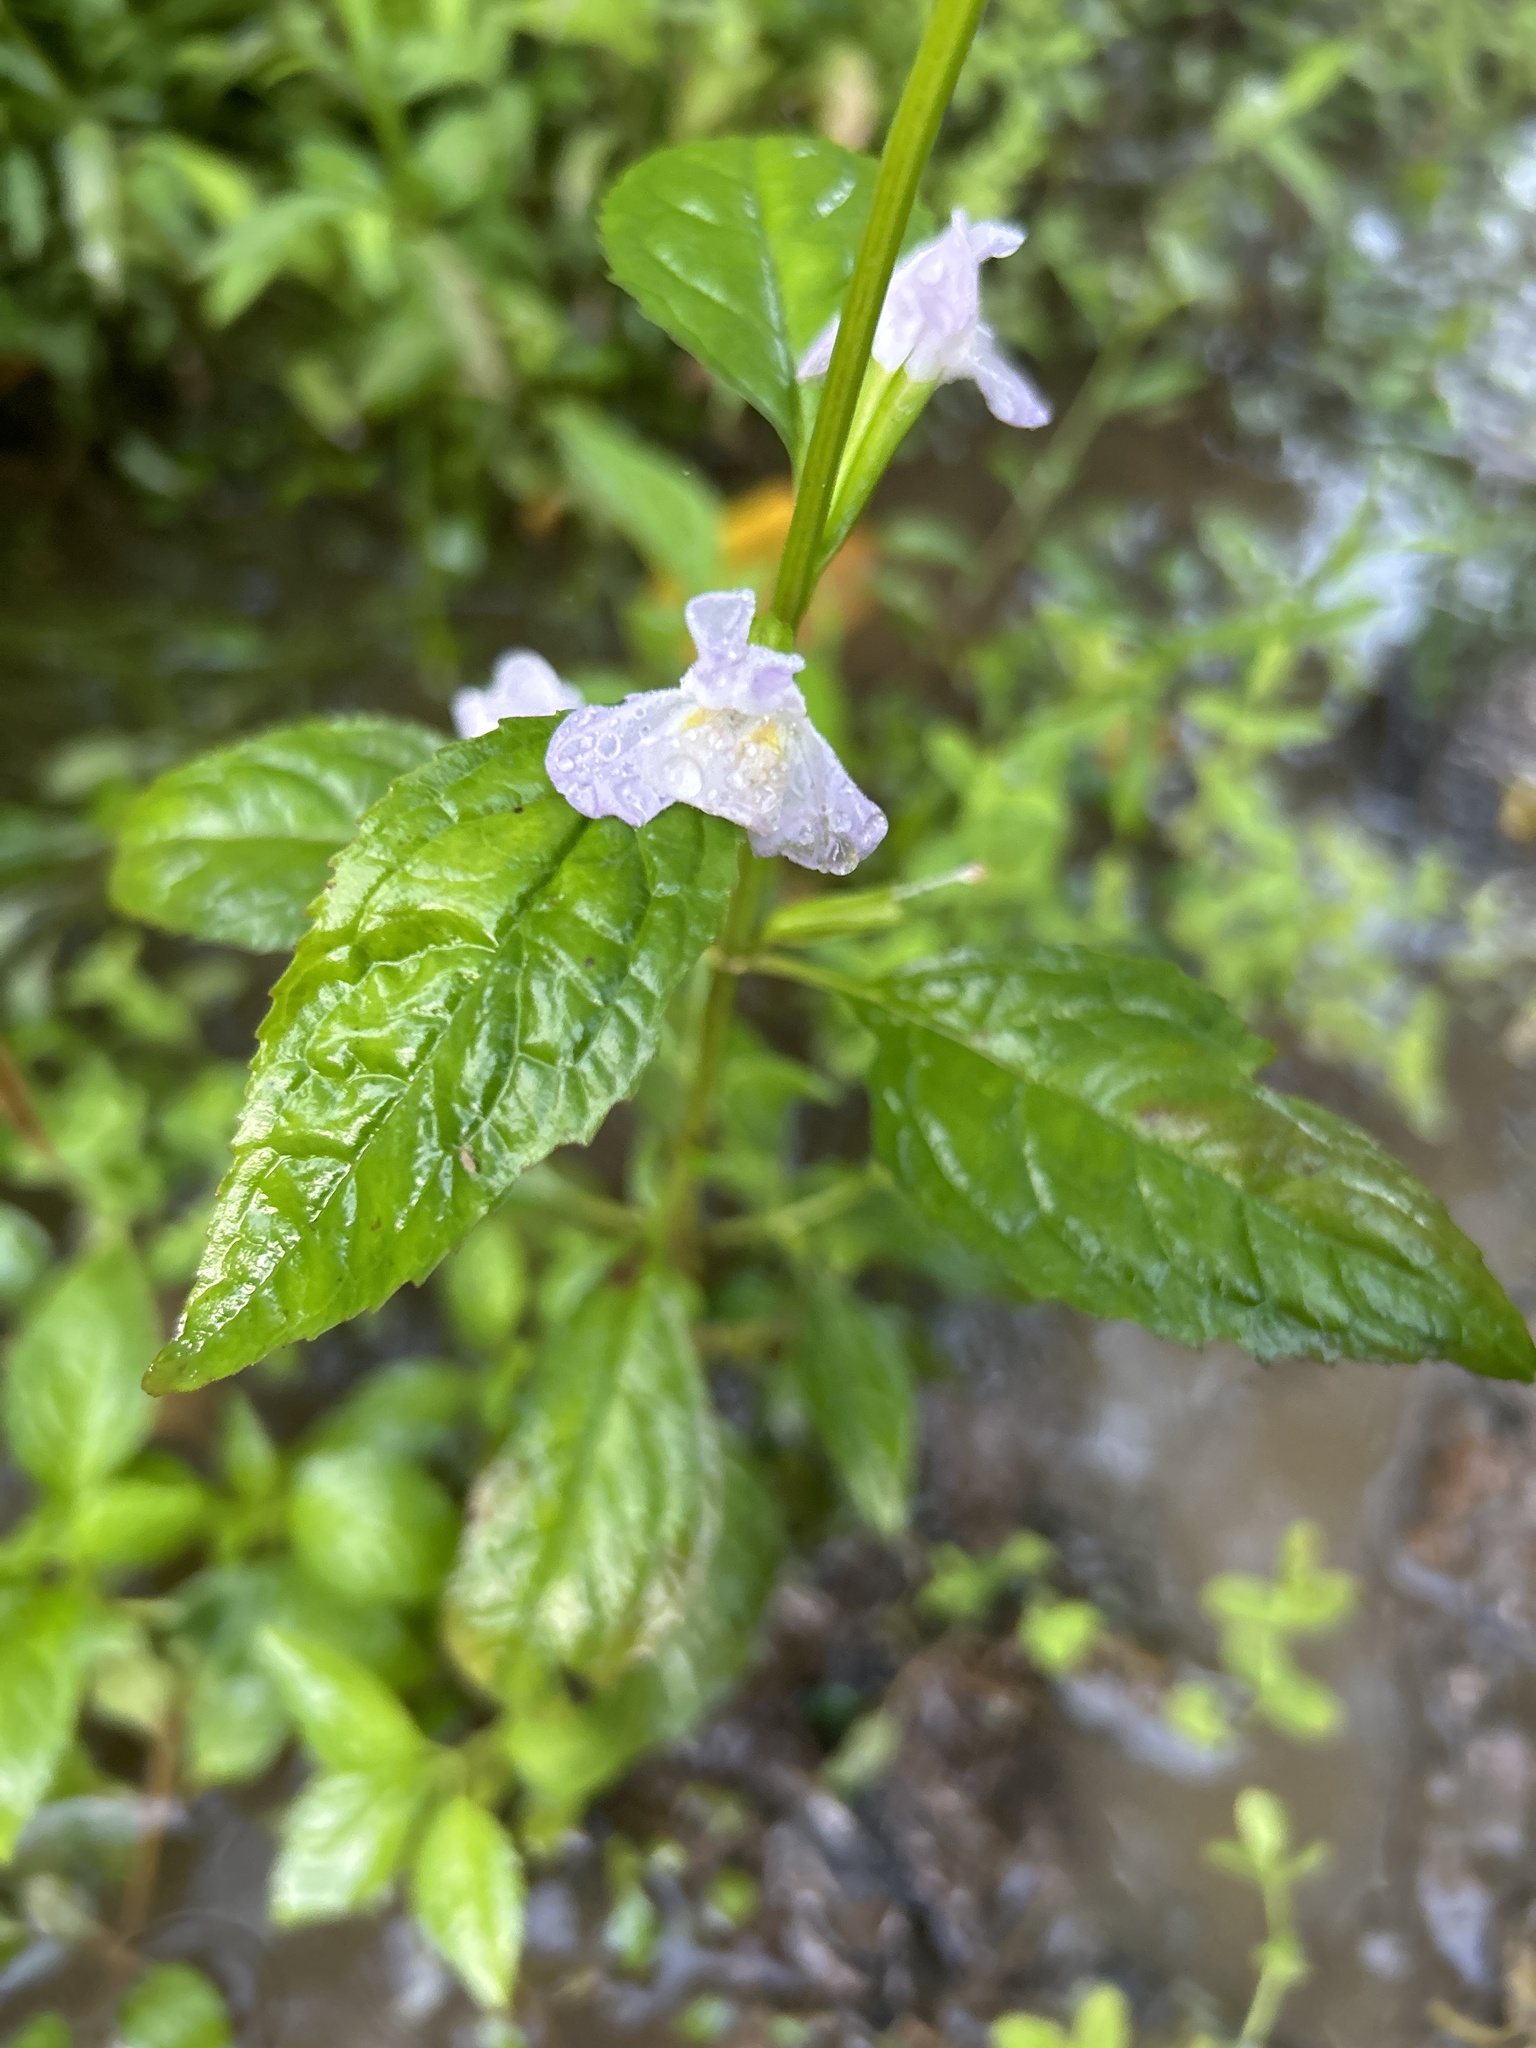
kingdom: Plantae
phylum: Tracheophyta
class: Magnoliopsida
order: Lamiales
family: Phrymaceae
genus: Mimulus
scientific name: Mimulus alatus
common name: Sharp-wing monkey-flower
